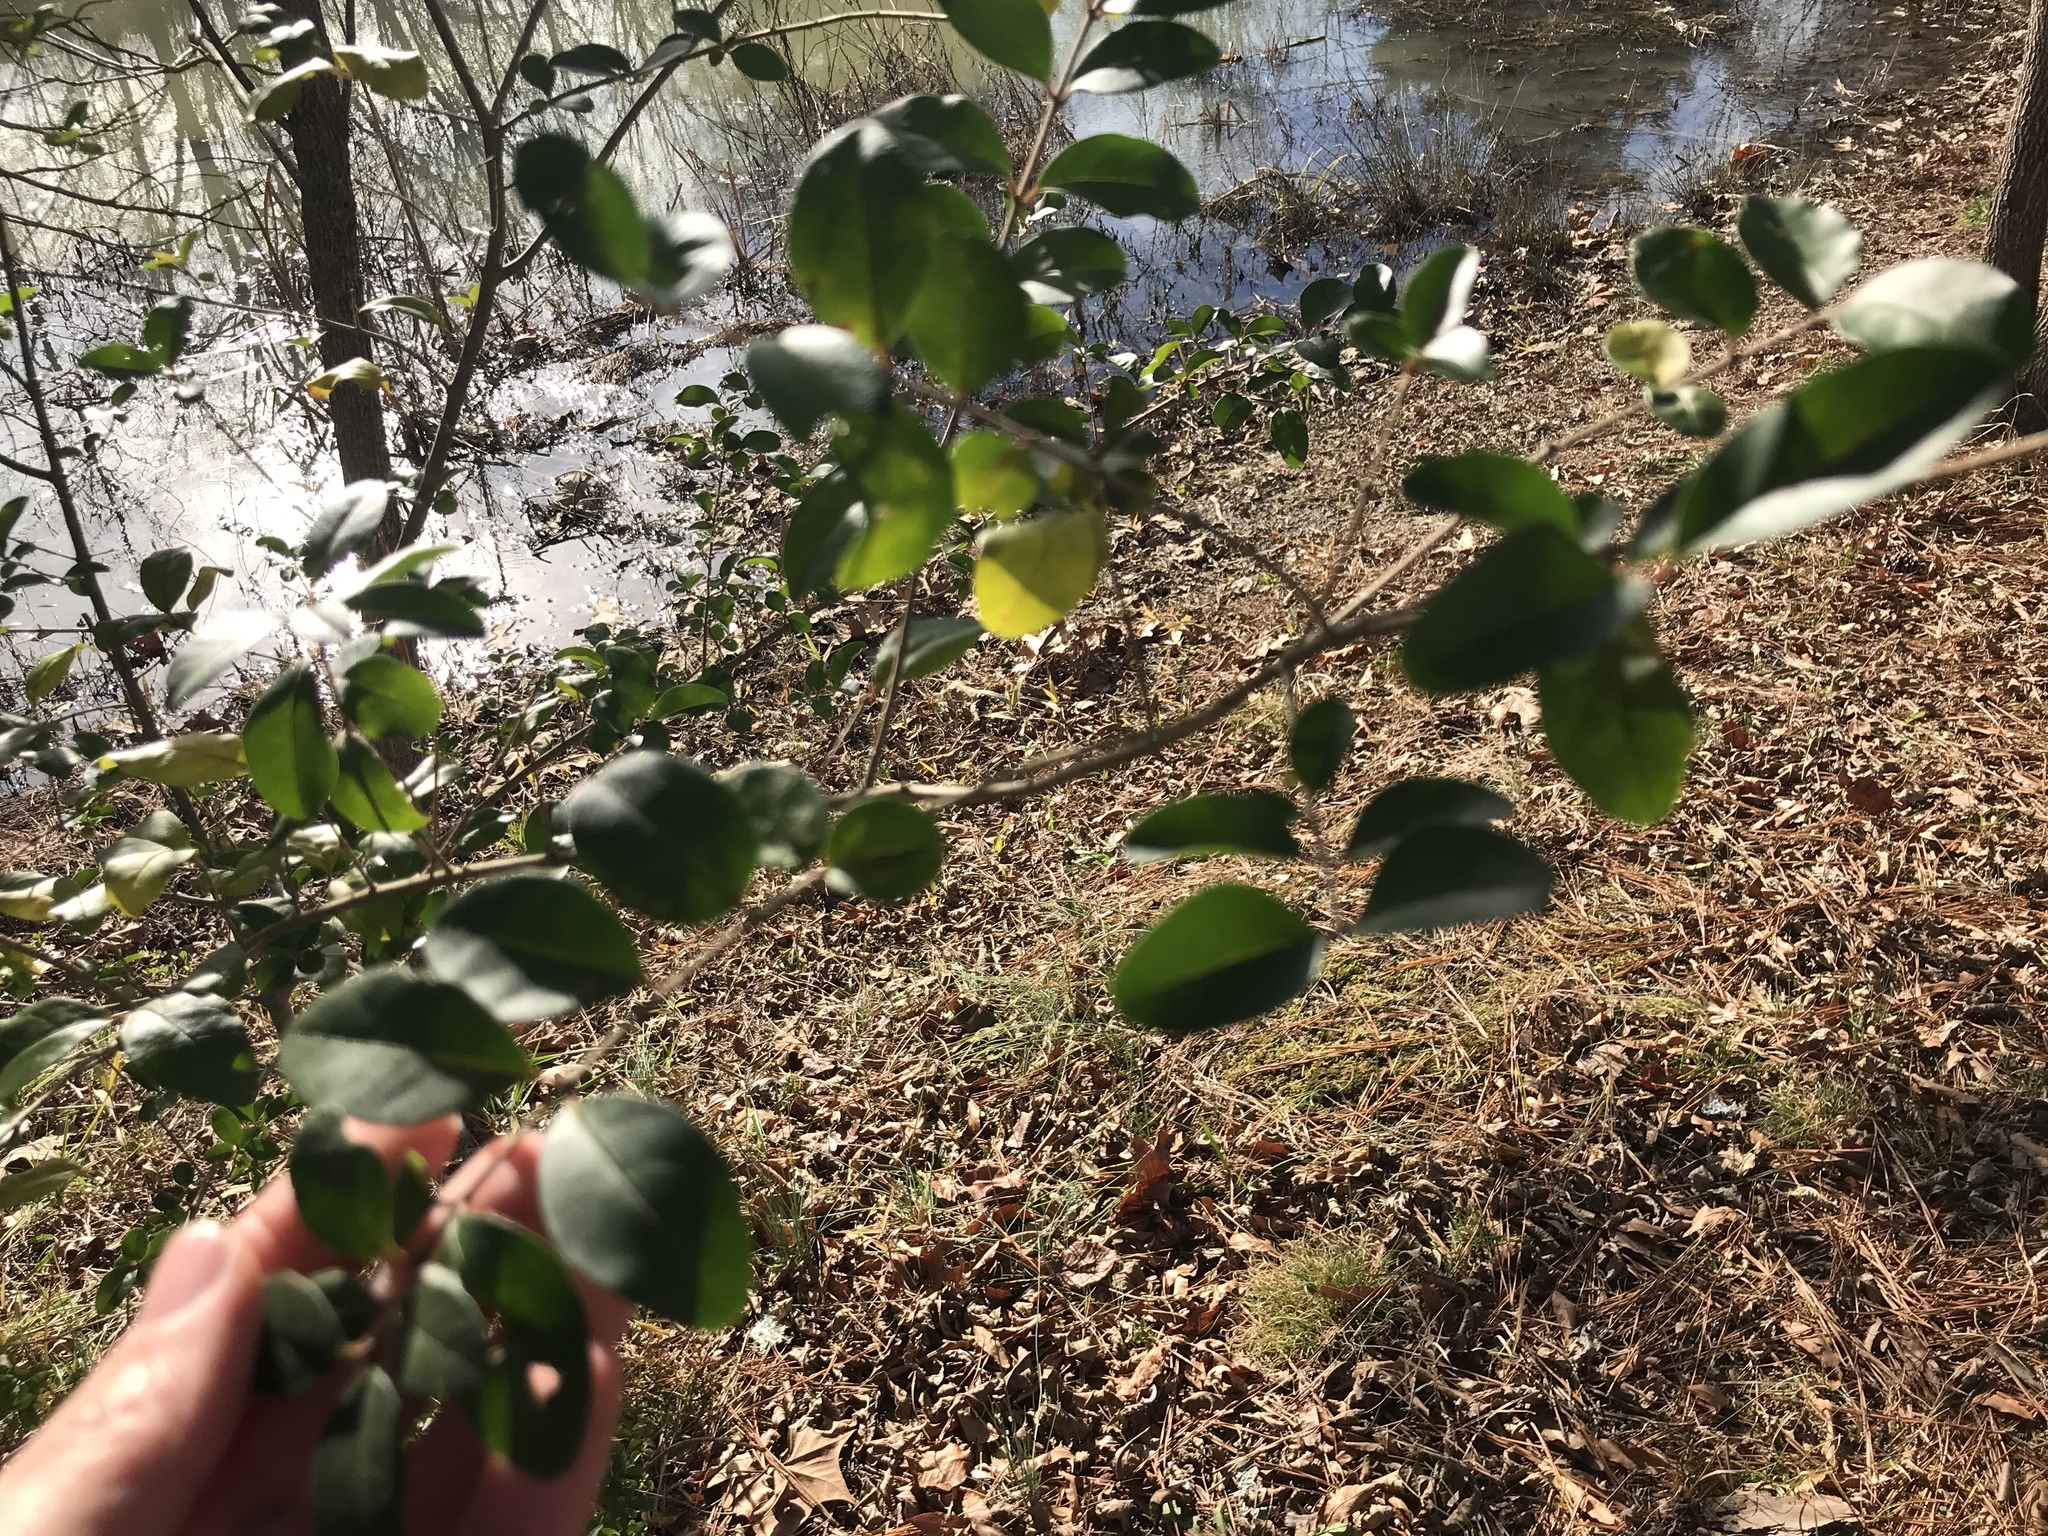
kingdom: Plantae
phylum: Tracheophyta
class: Magnoliopsida
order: Lamiales
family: Oleaceae
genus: Ligustrum
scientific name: Ligustrum sinense
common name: Chinese privet
